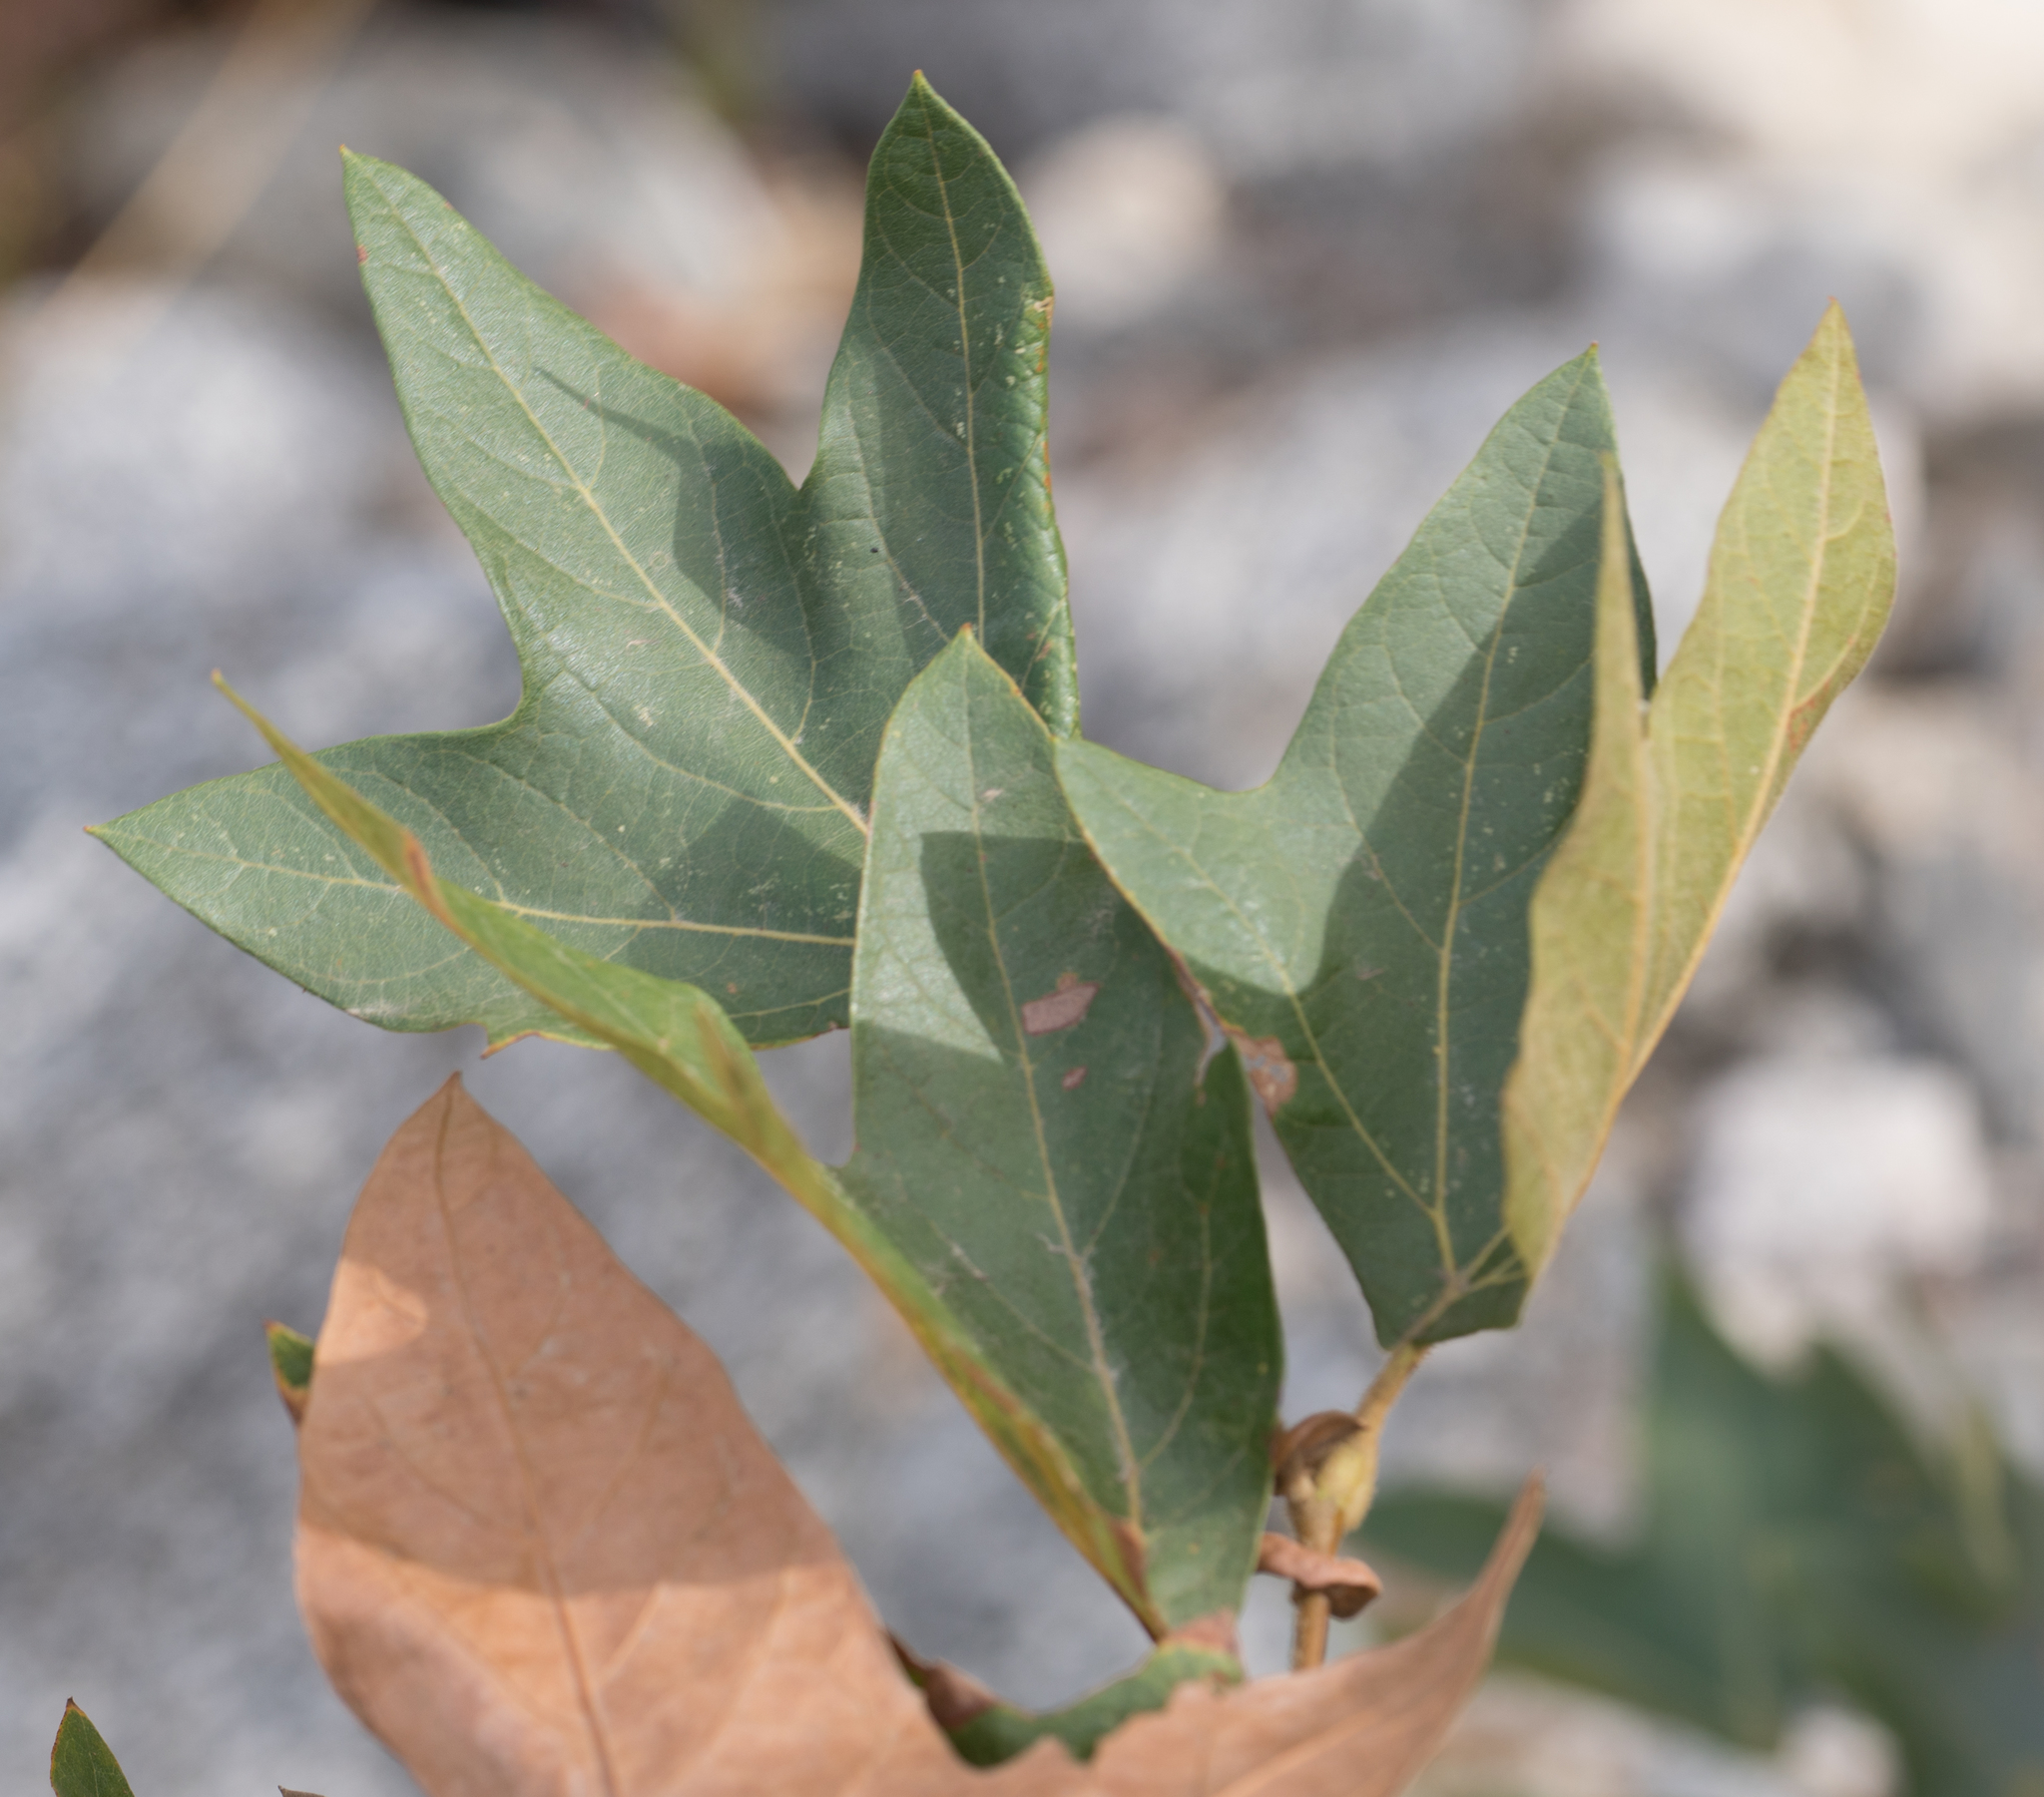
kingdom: Plantae
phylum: Tracheophyta
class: Magnoliopsida
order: Proteales
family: Platanaceae
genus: Platanus
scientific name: Platanus racemosa
